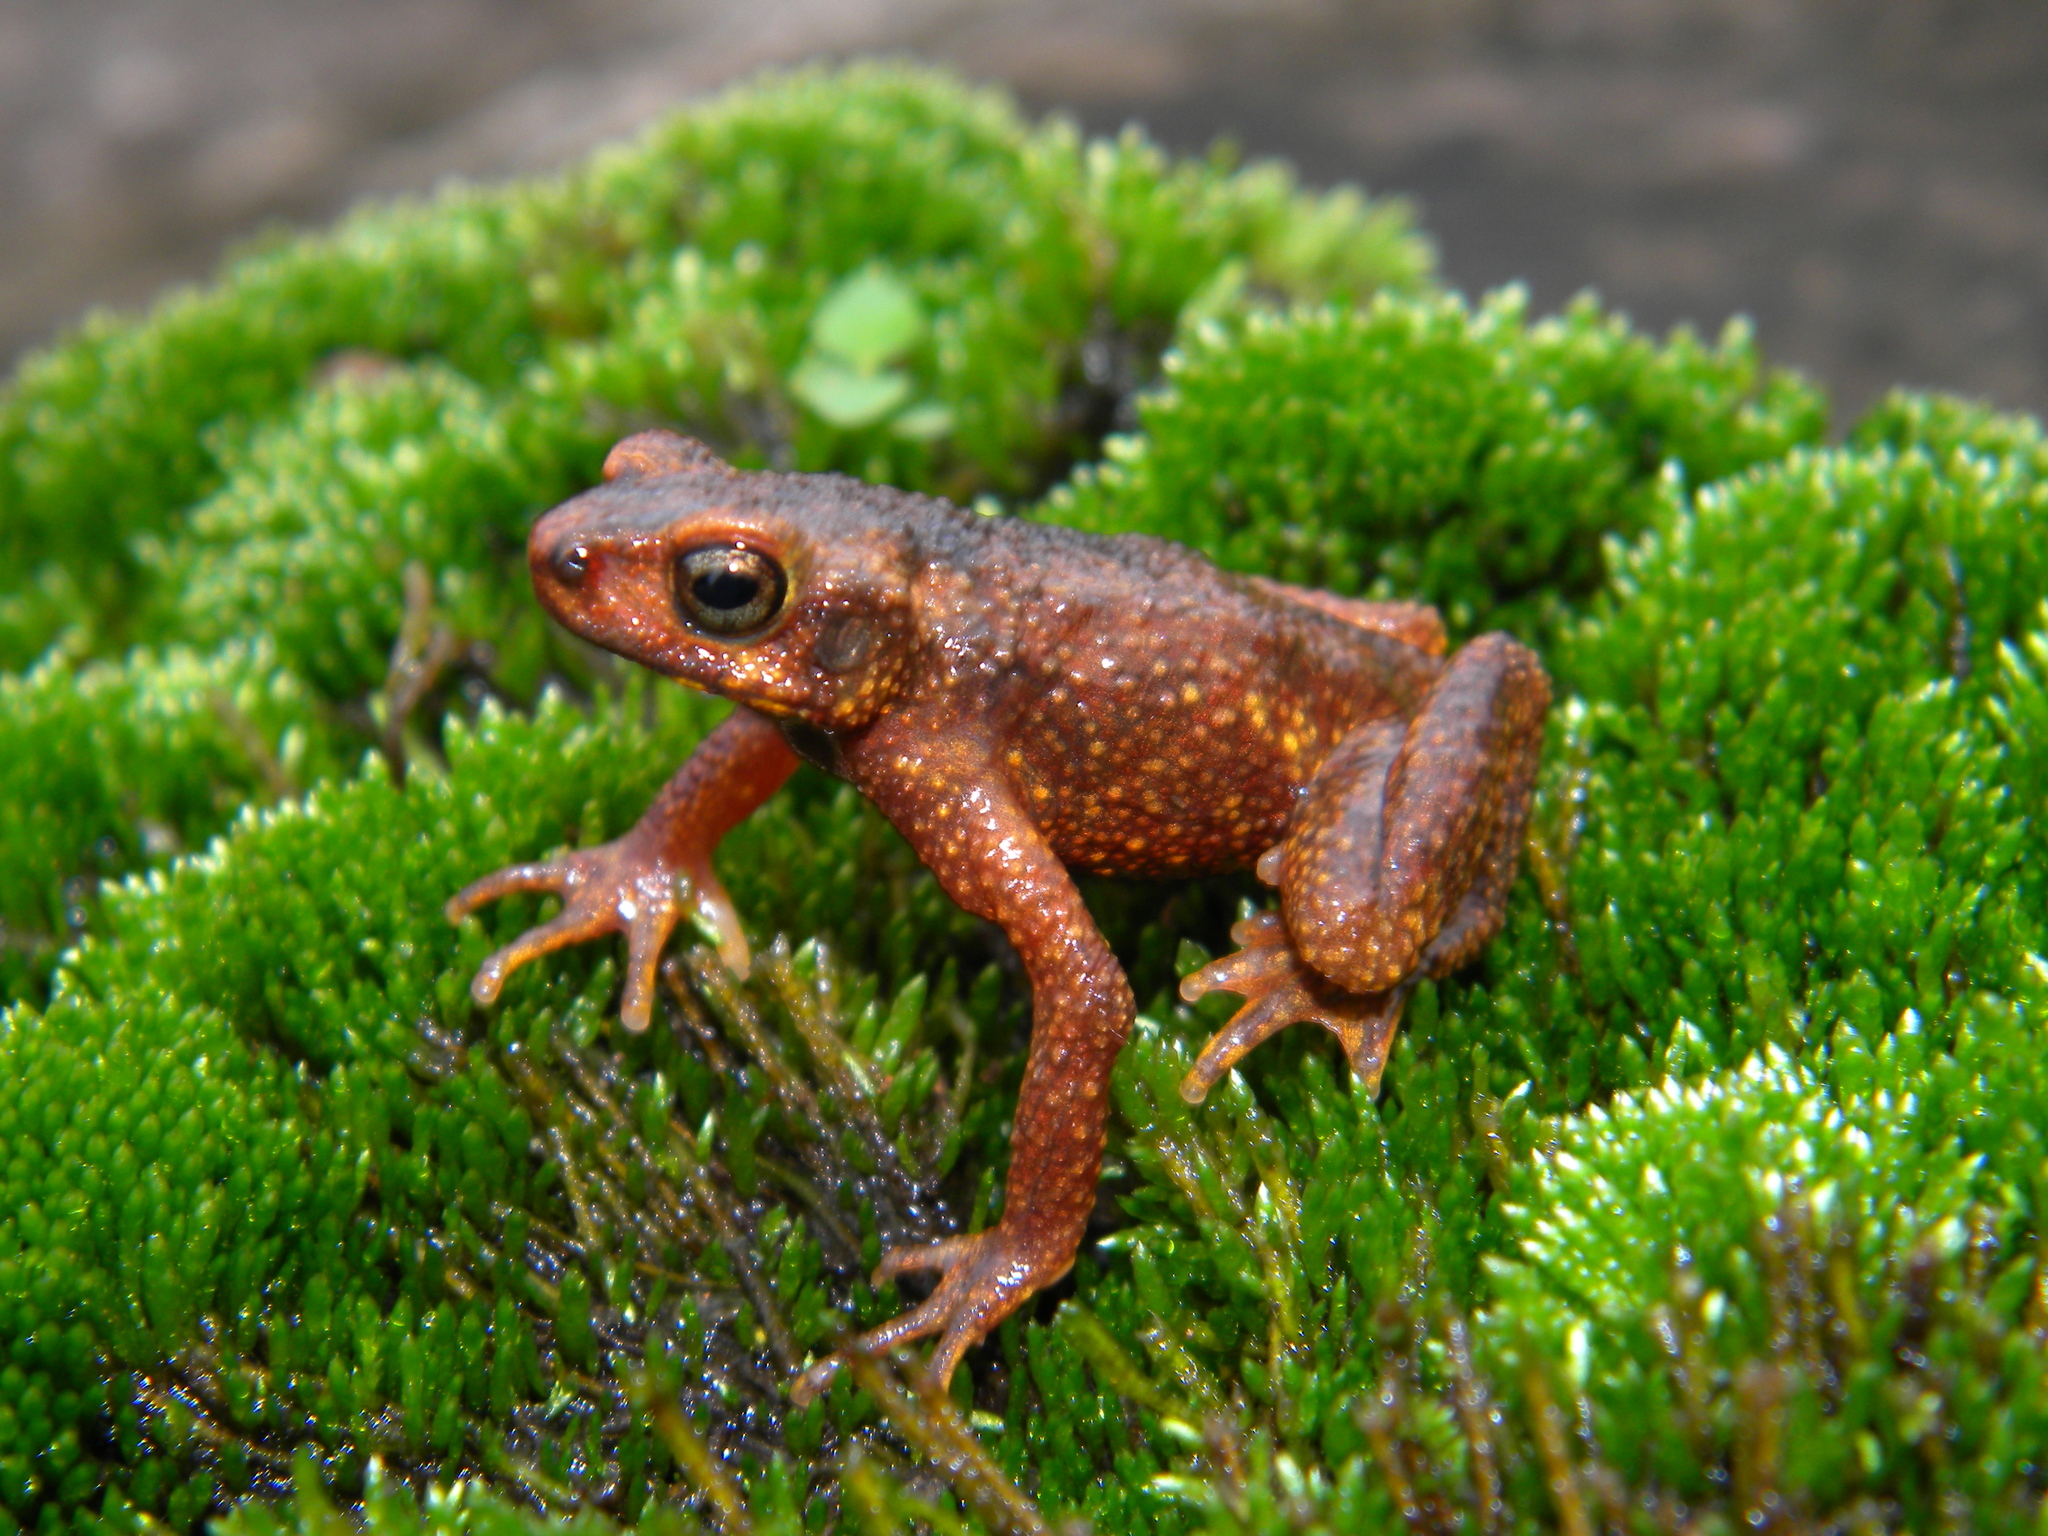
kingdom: Animalia
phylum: Chordata
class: Amphibia
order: Anura
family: Bufonidae
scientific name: Bufonidae
